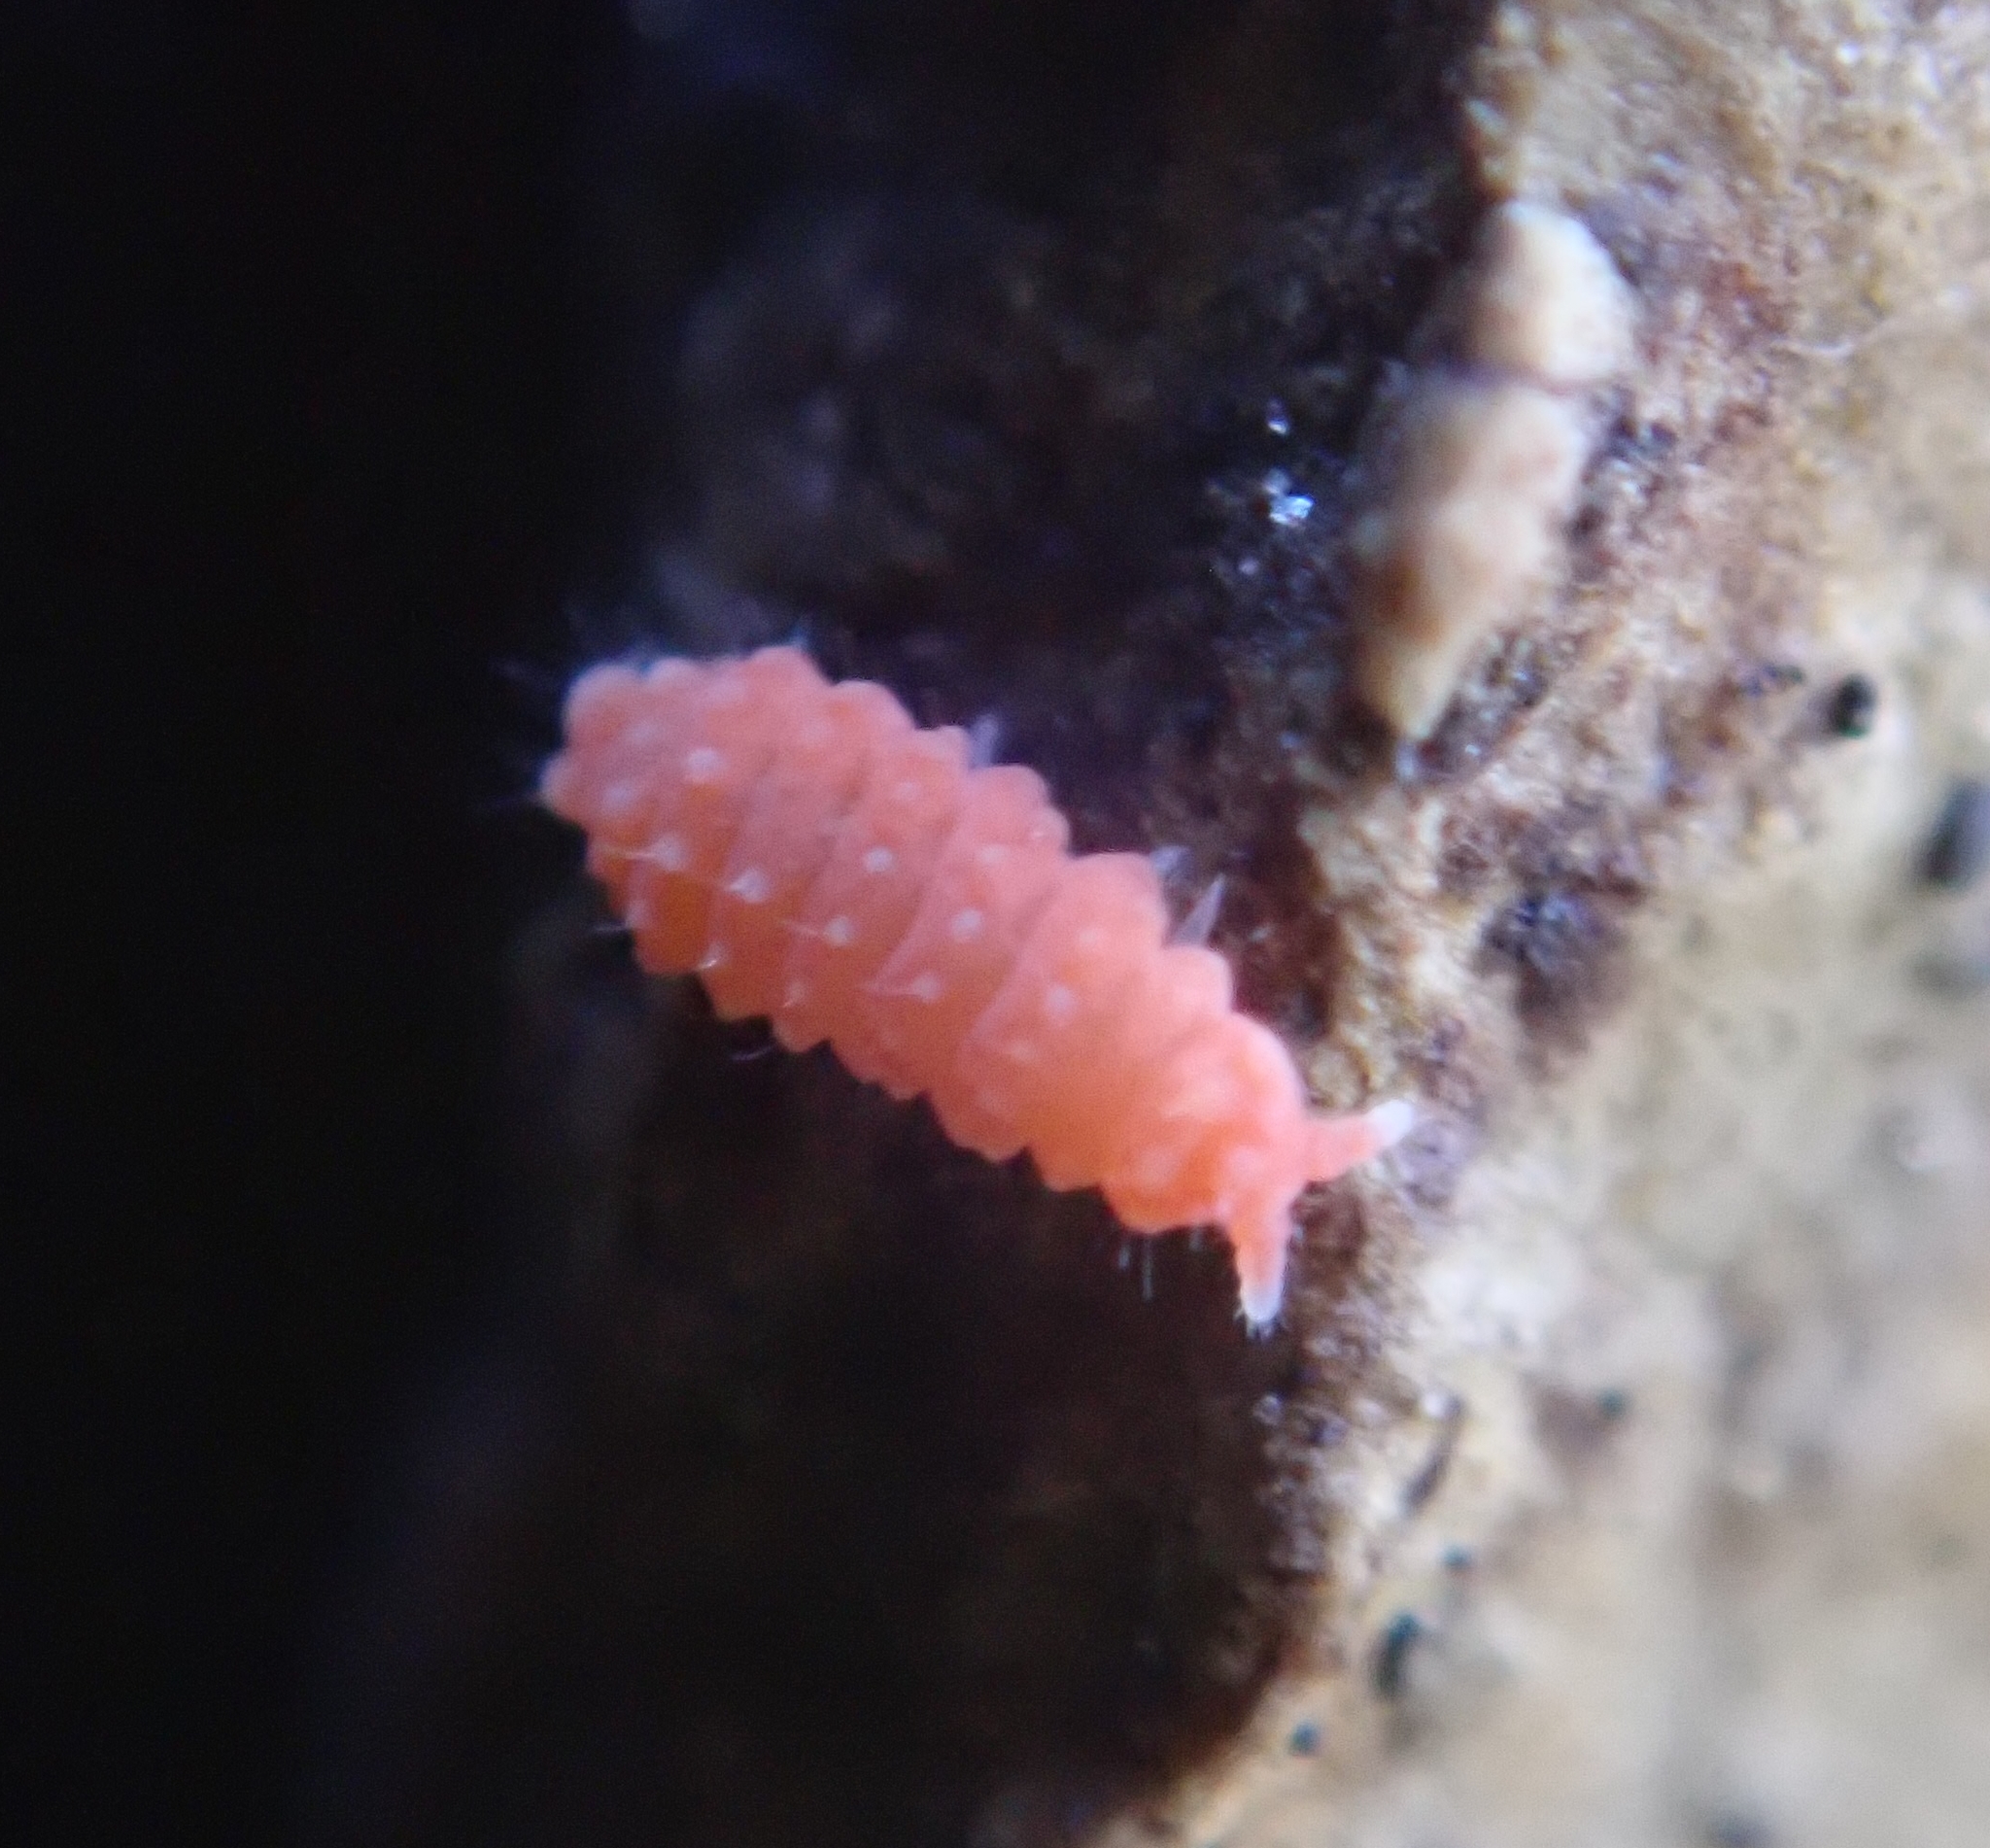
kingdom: Animalia
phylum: Arthropoda
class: Collembola
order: Poduromorpha
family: Neanuridae
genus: Bilobella
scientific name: Bilobella braunerae
